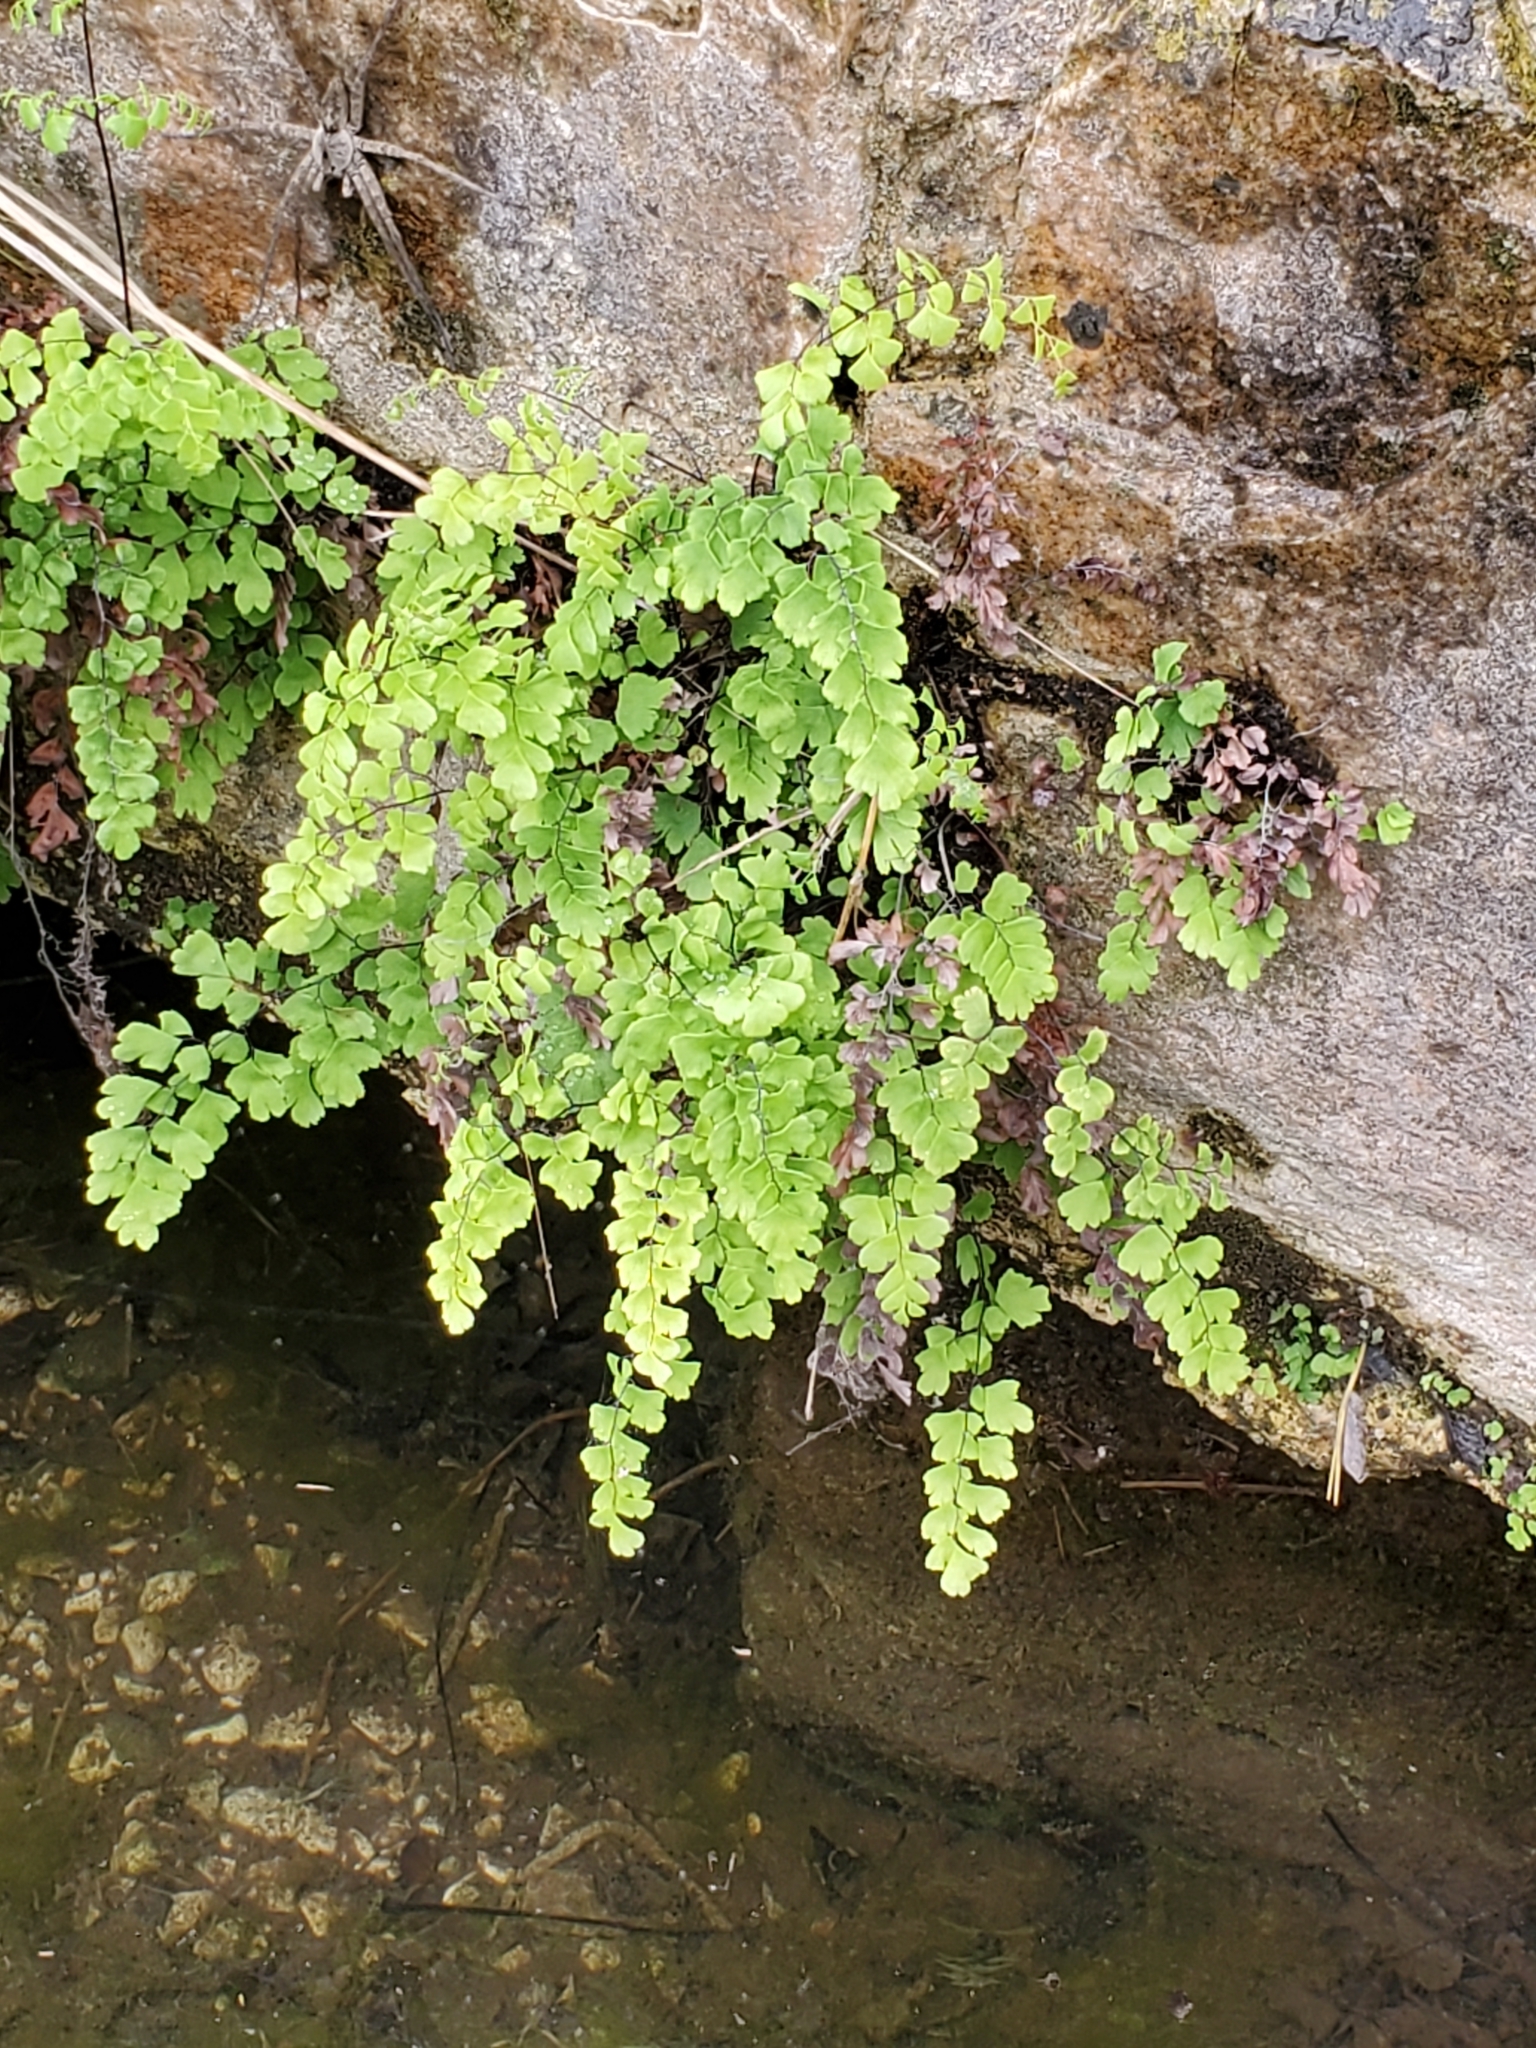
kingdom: Plantae
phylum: Tracheophyta
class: Polypodiopsida
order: Polypodiales
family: Pteridaceae
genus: Adiantum
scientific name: Adiantum capillus-veneris
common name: Maidenhair fern
